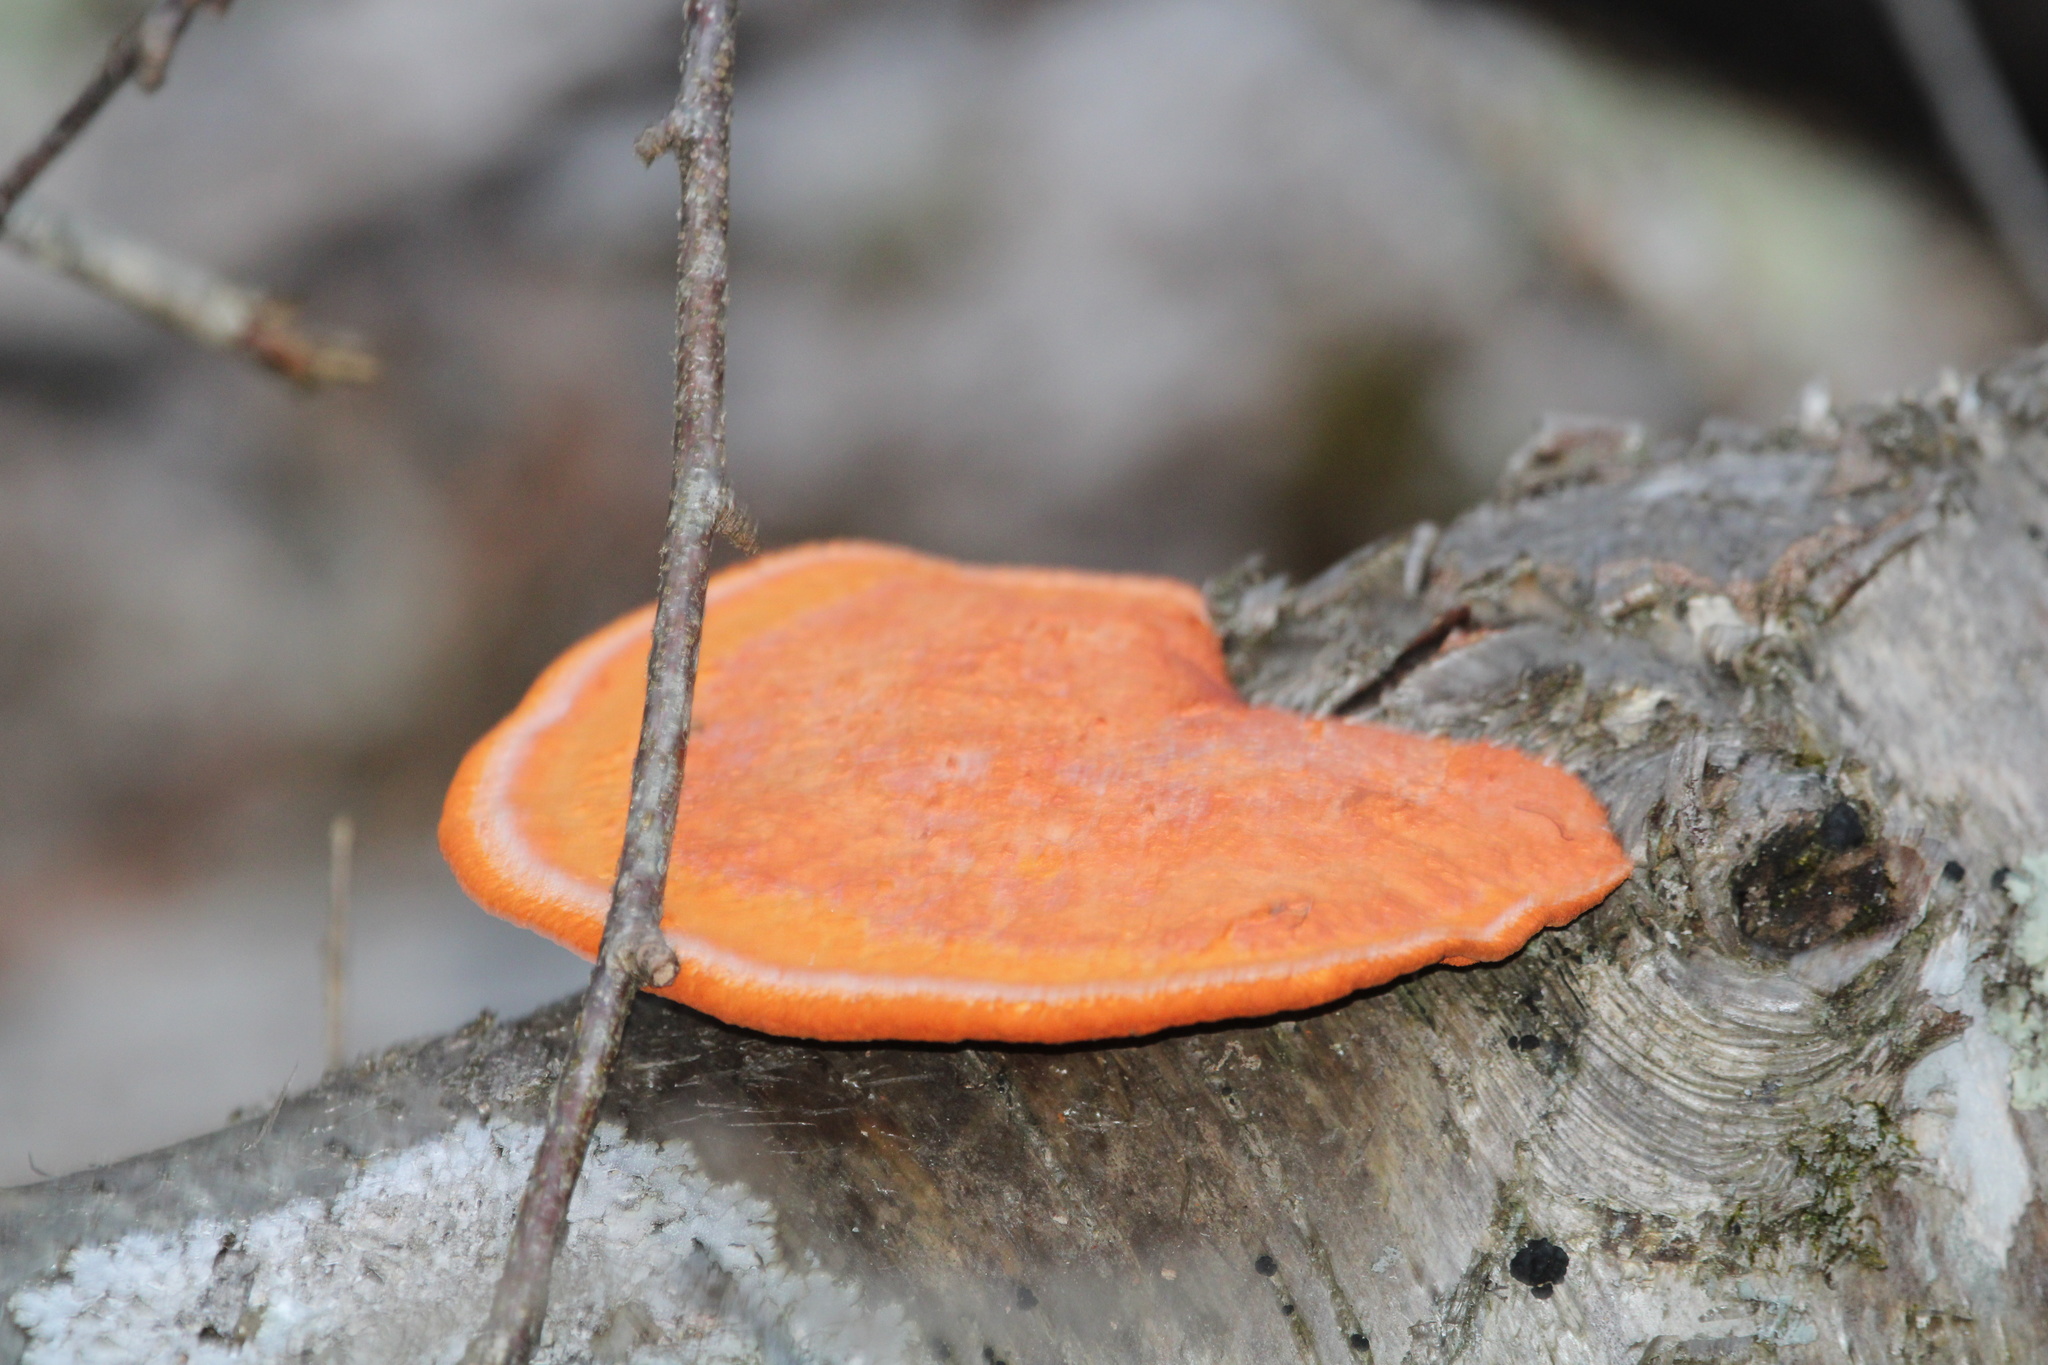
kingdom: Fungi
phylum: Basidiomycota
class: Agaricomycetes
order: Polyporales
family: Polyporaceae
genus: Trametes
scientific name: Trametes cinnabarina
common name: Northern cinnabar polypore
